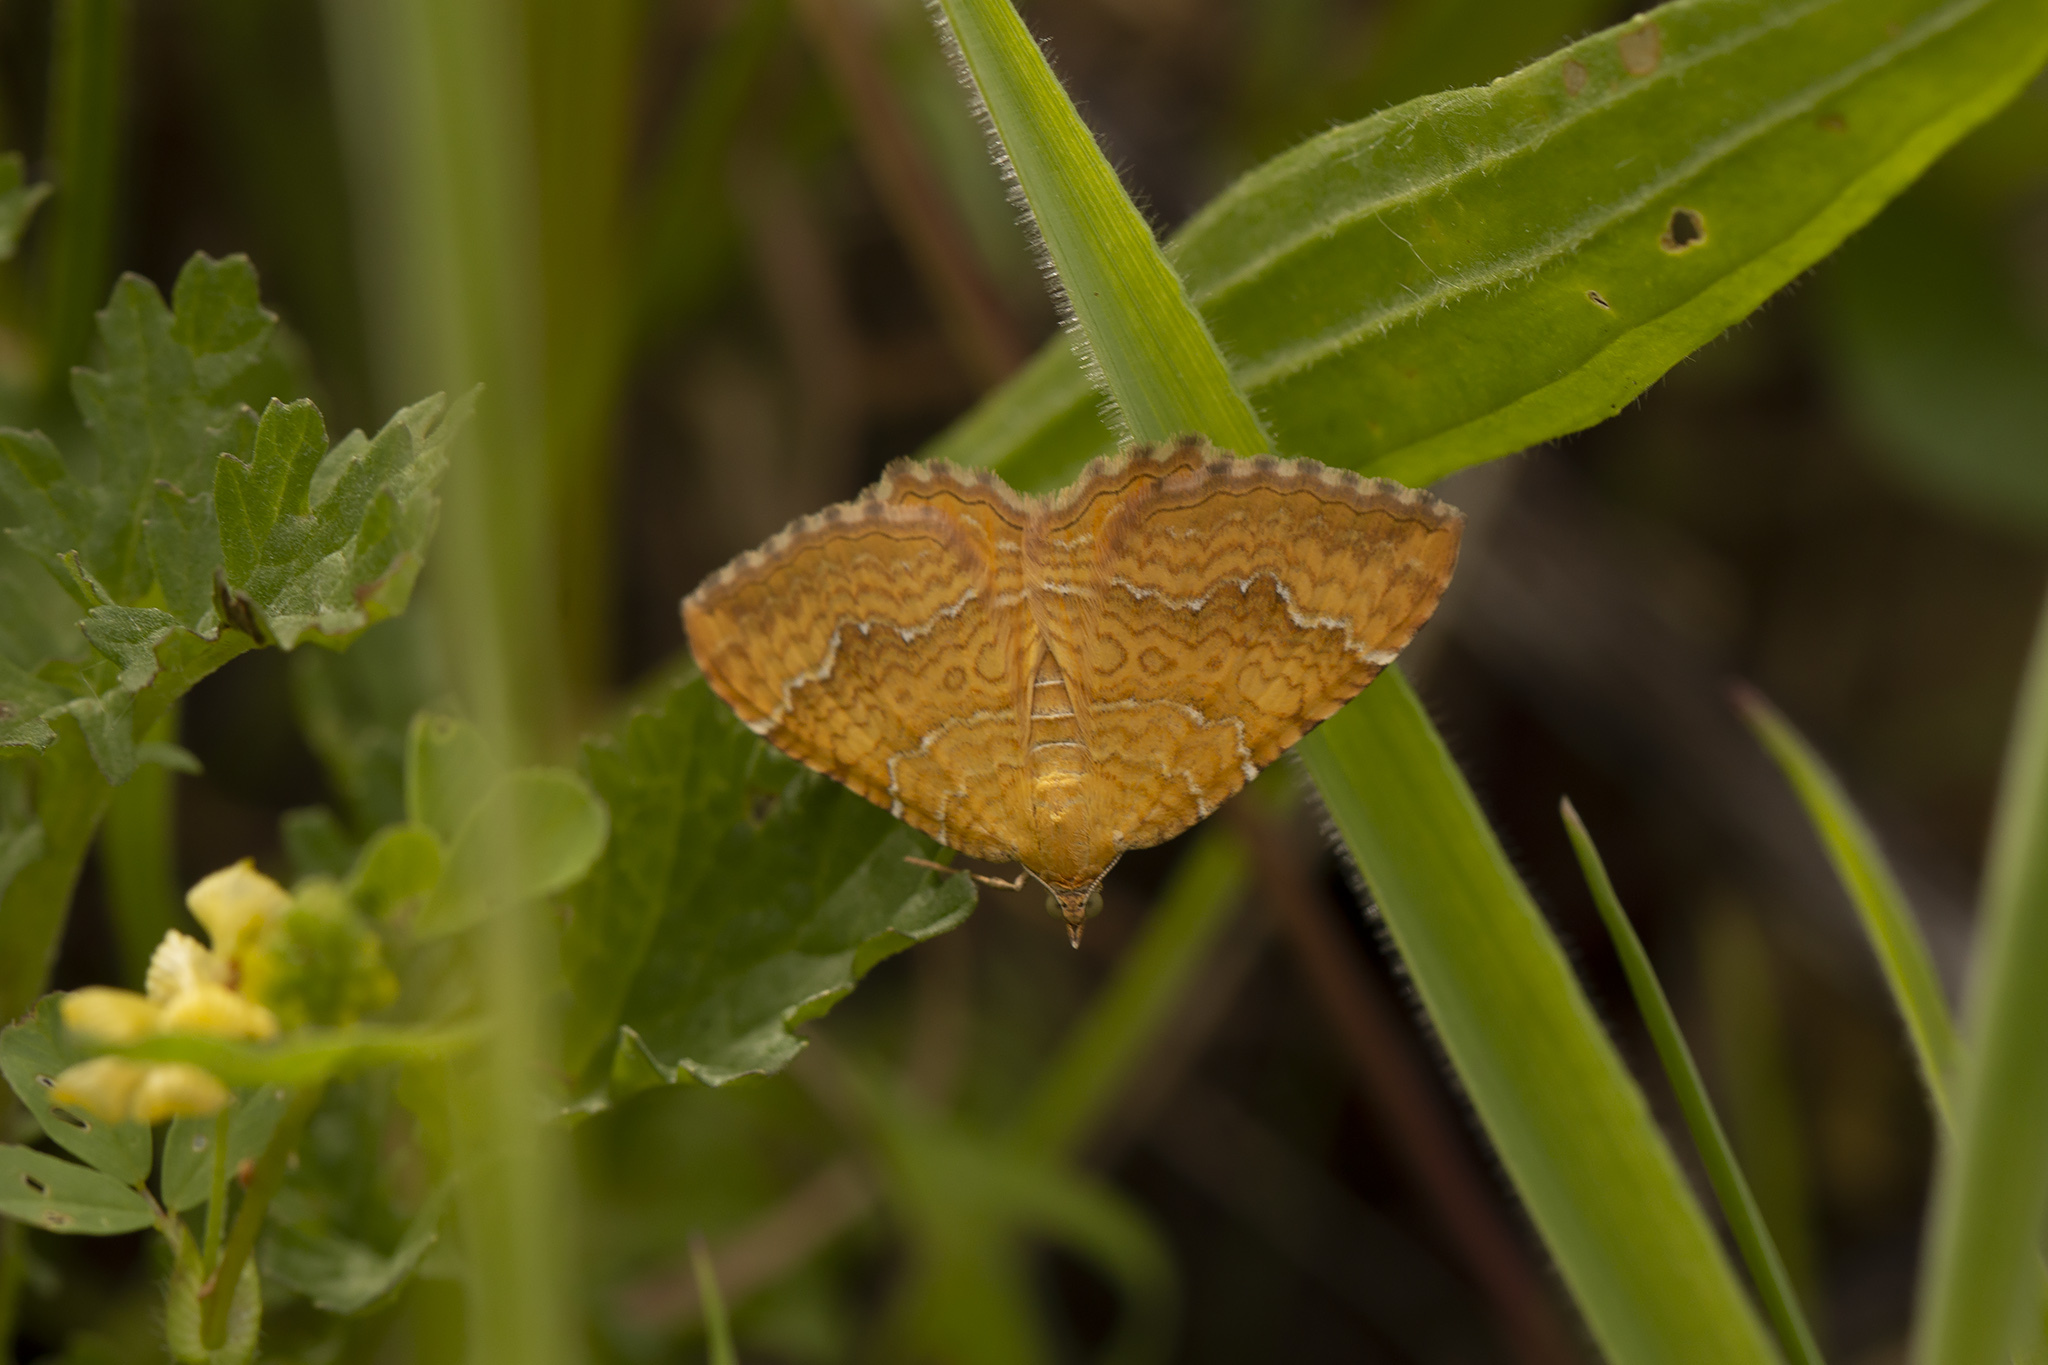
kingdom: Animalia
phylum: Arthropoda
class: Insecta
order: Lepidoptera
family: Geometridae
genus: Camptogramma
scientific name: Camptogramma bilineata
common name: Yellow shell
